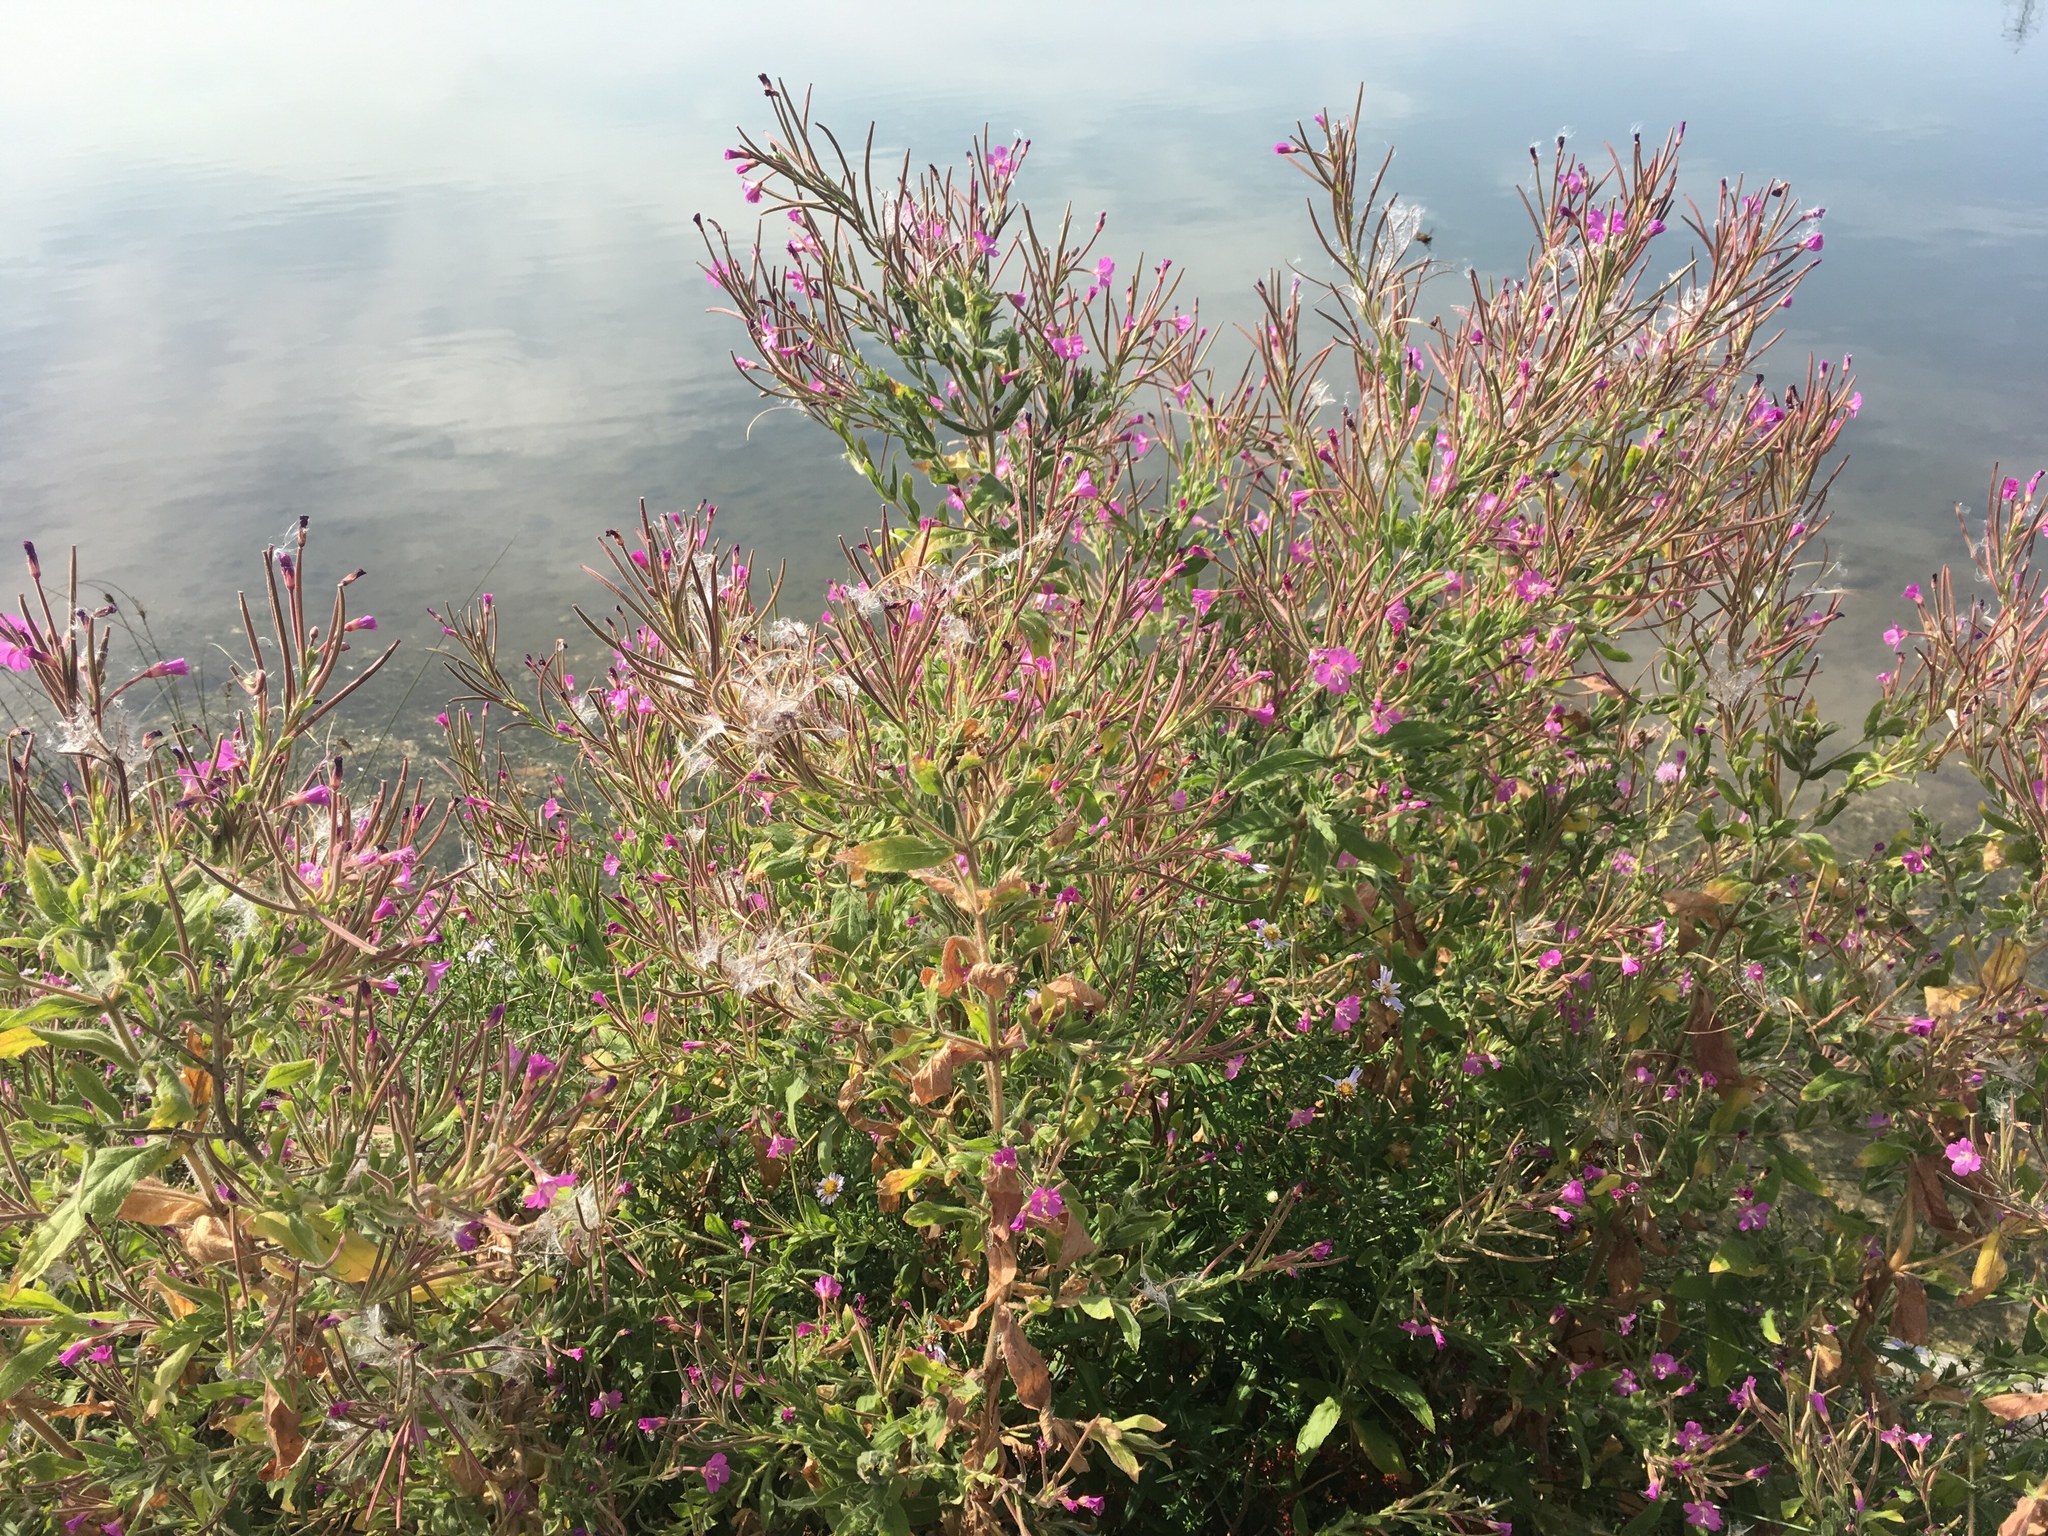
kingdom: Plantae
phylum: Tracheophyta
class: Magnoliopsida
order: Myrtales
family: Onagraceae
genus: Epilobium
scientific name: Epilobium hirsutum
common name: Great willowherb
